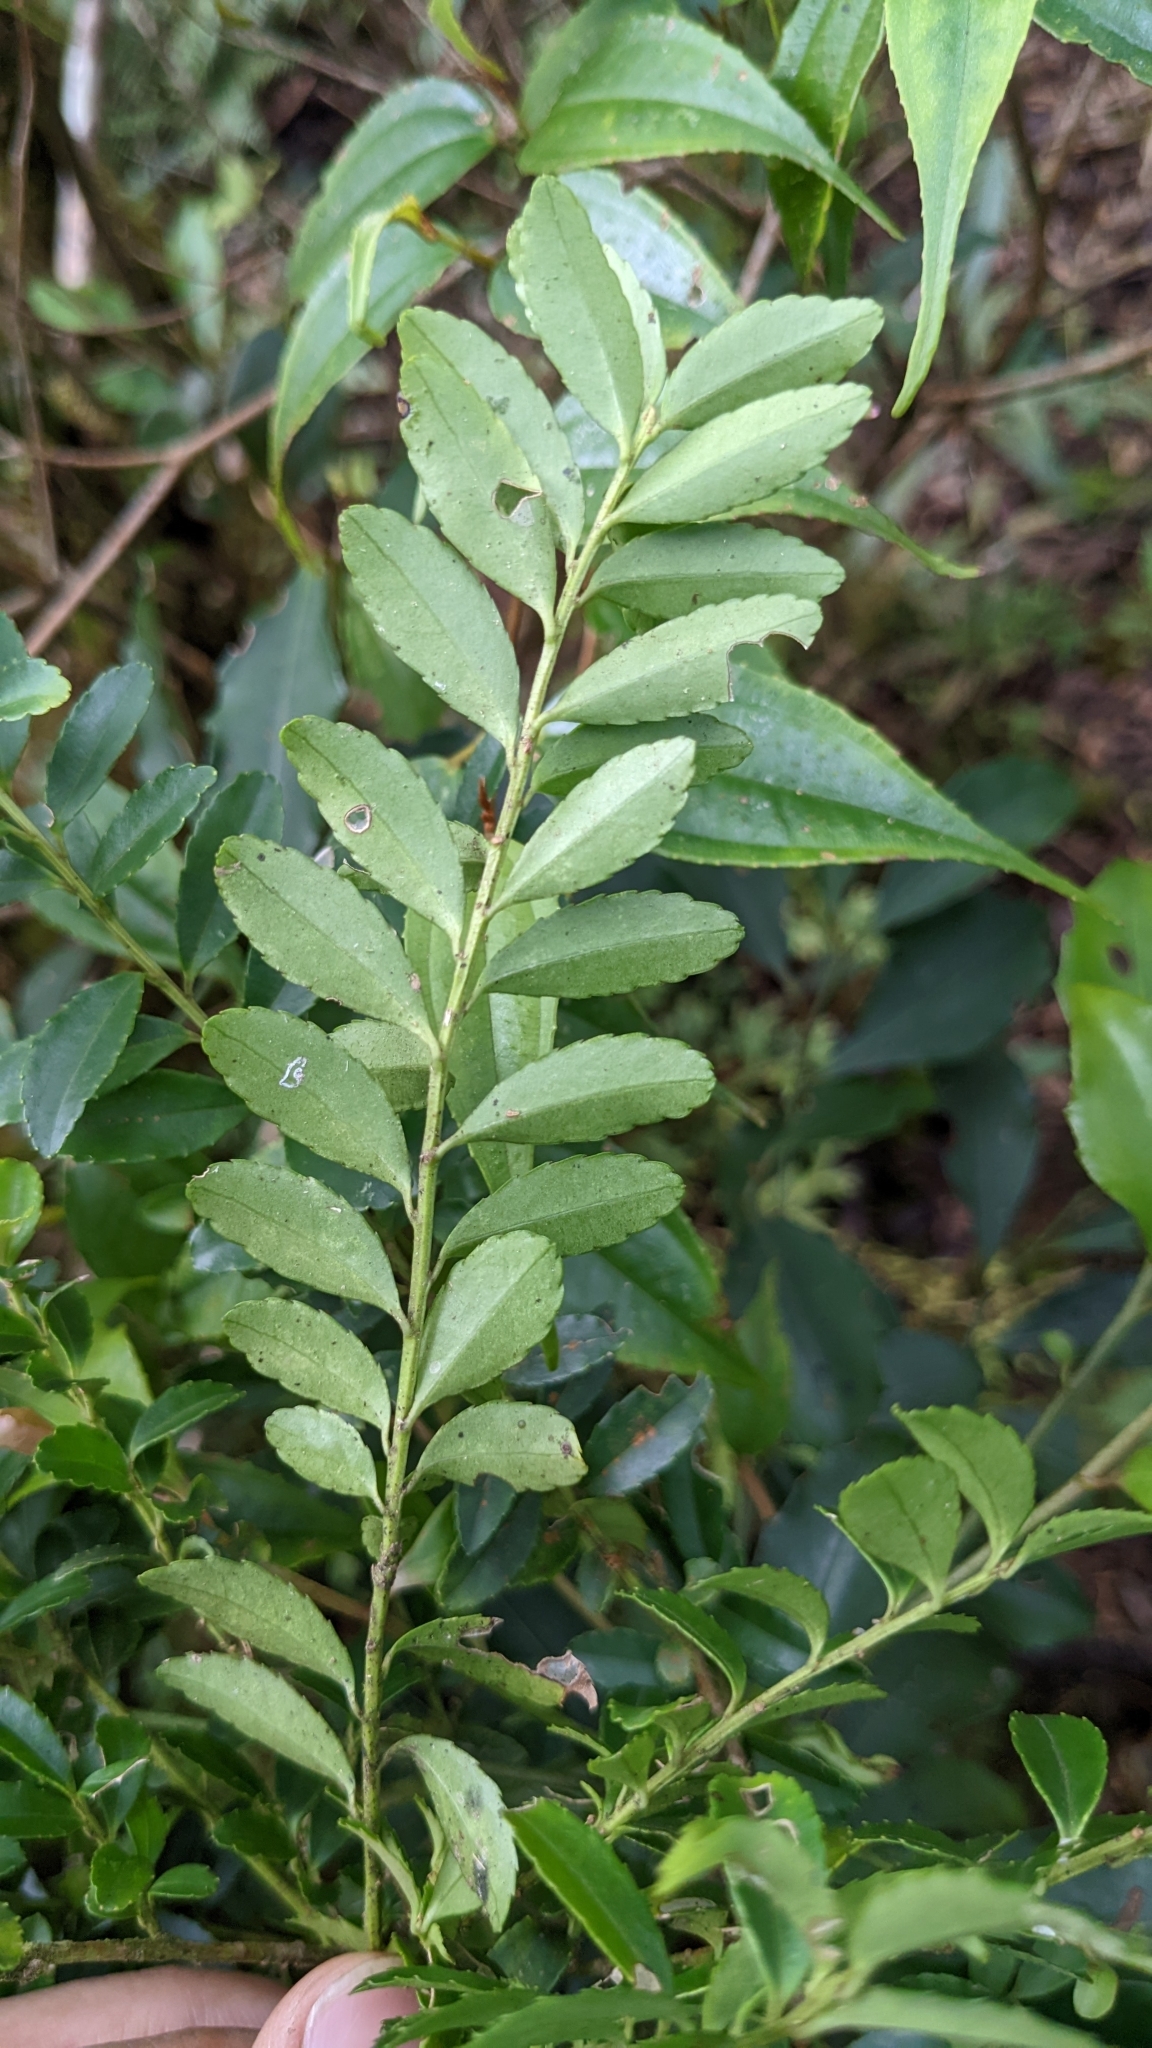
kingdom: Plantae
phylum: Tracheophyta
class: Magnoliopsida
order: Aquifoliales
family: Aquifoliaceae
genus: Ilex
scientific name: Ilex maximowicziana
